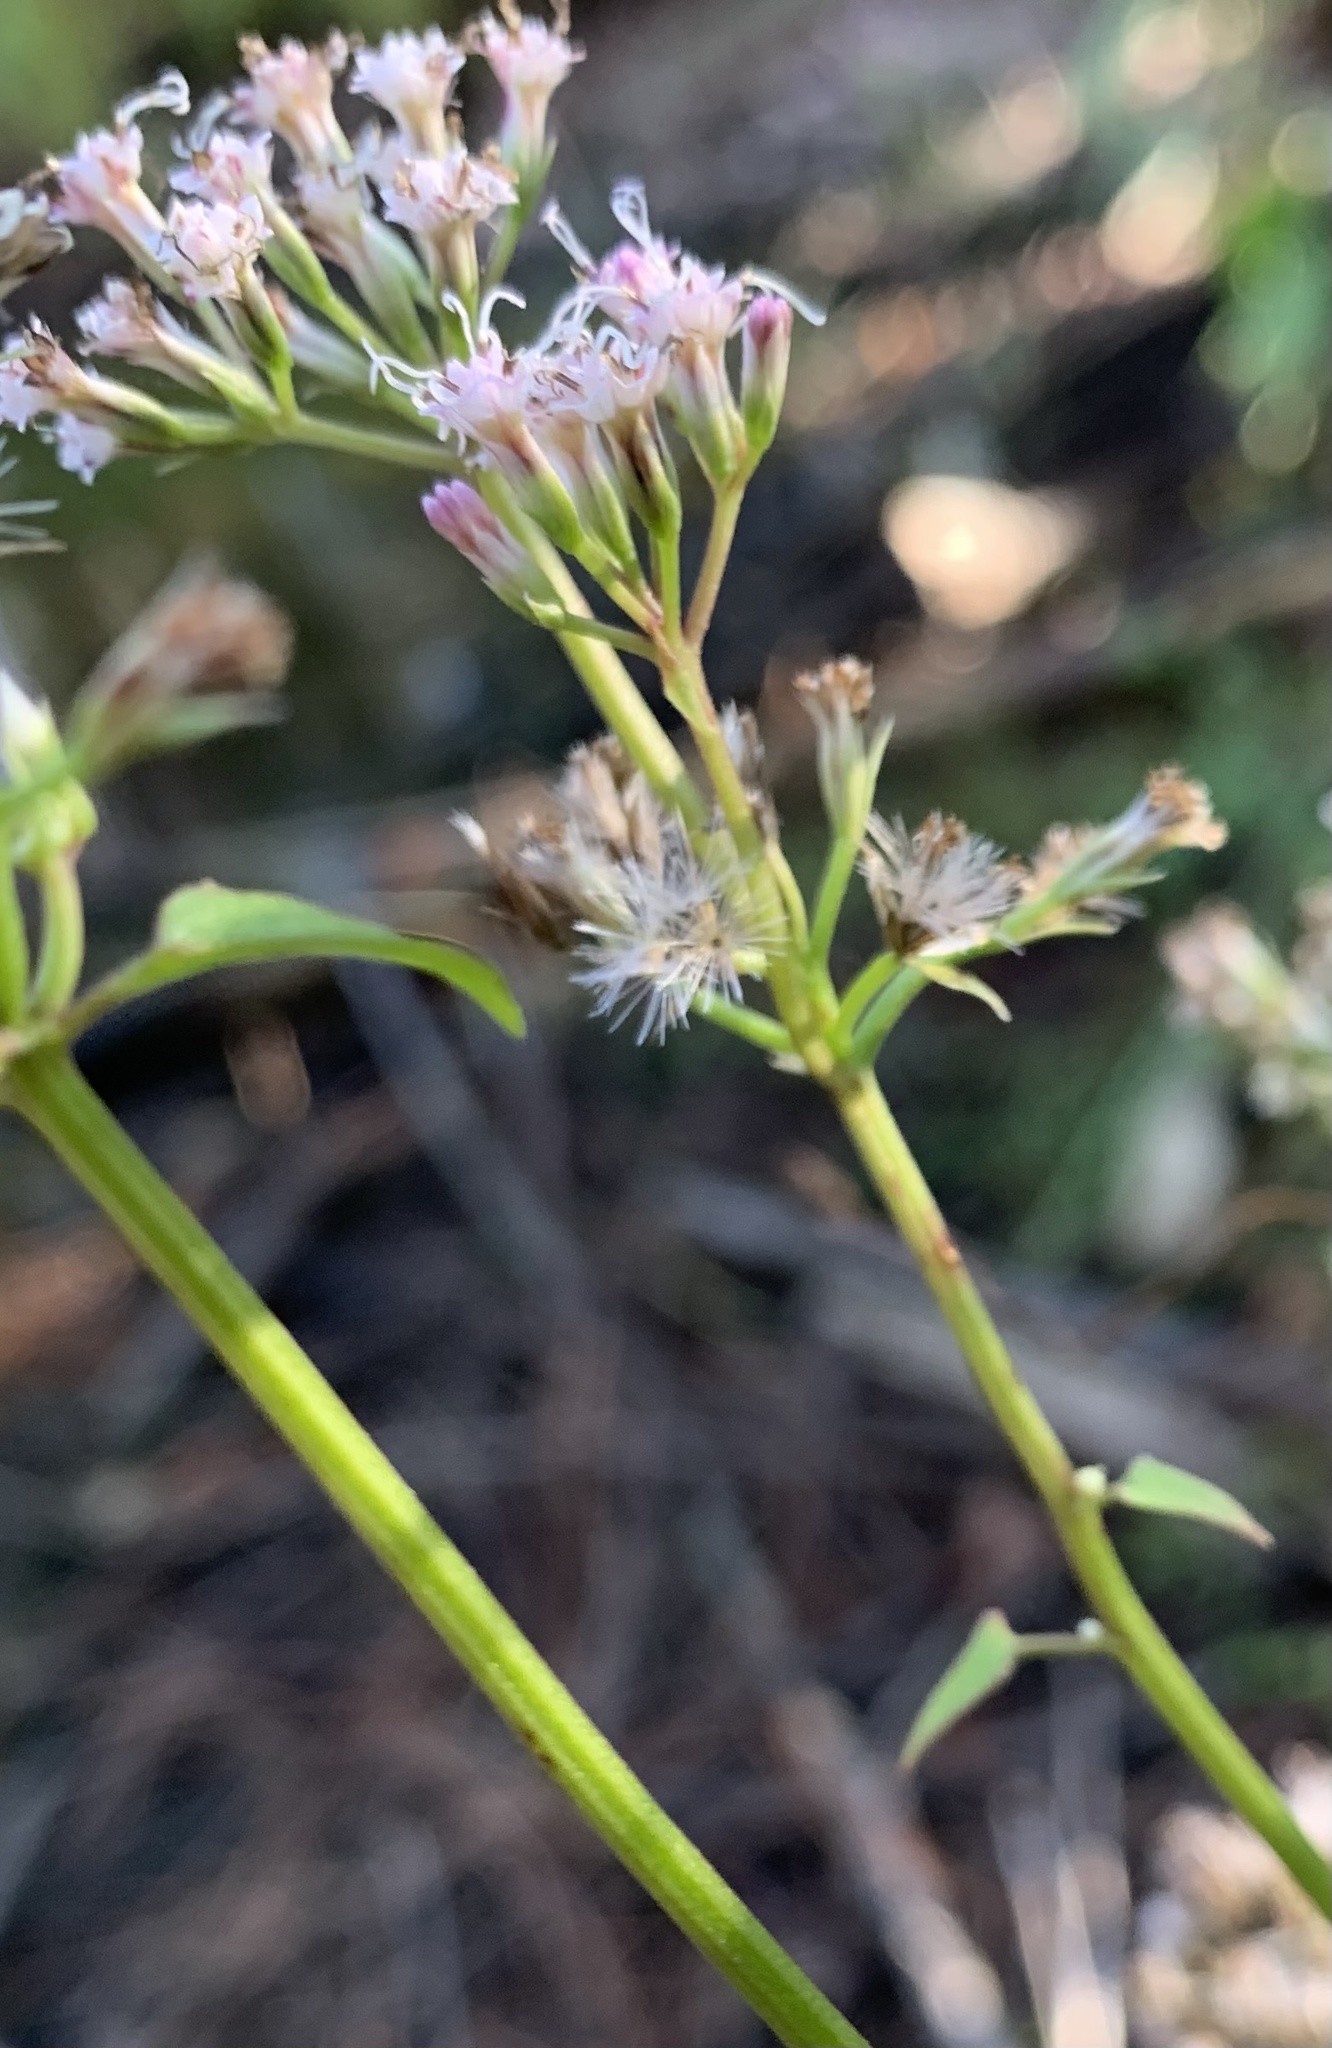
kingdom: Plantae
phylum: Tracheophyta
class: Magnoliopsida
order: Asterales
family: Asteraceae
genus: Mikania
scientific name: Mikania scandens
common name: Climbing hempvine
